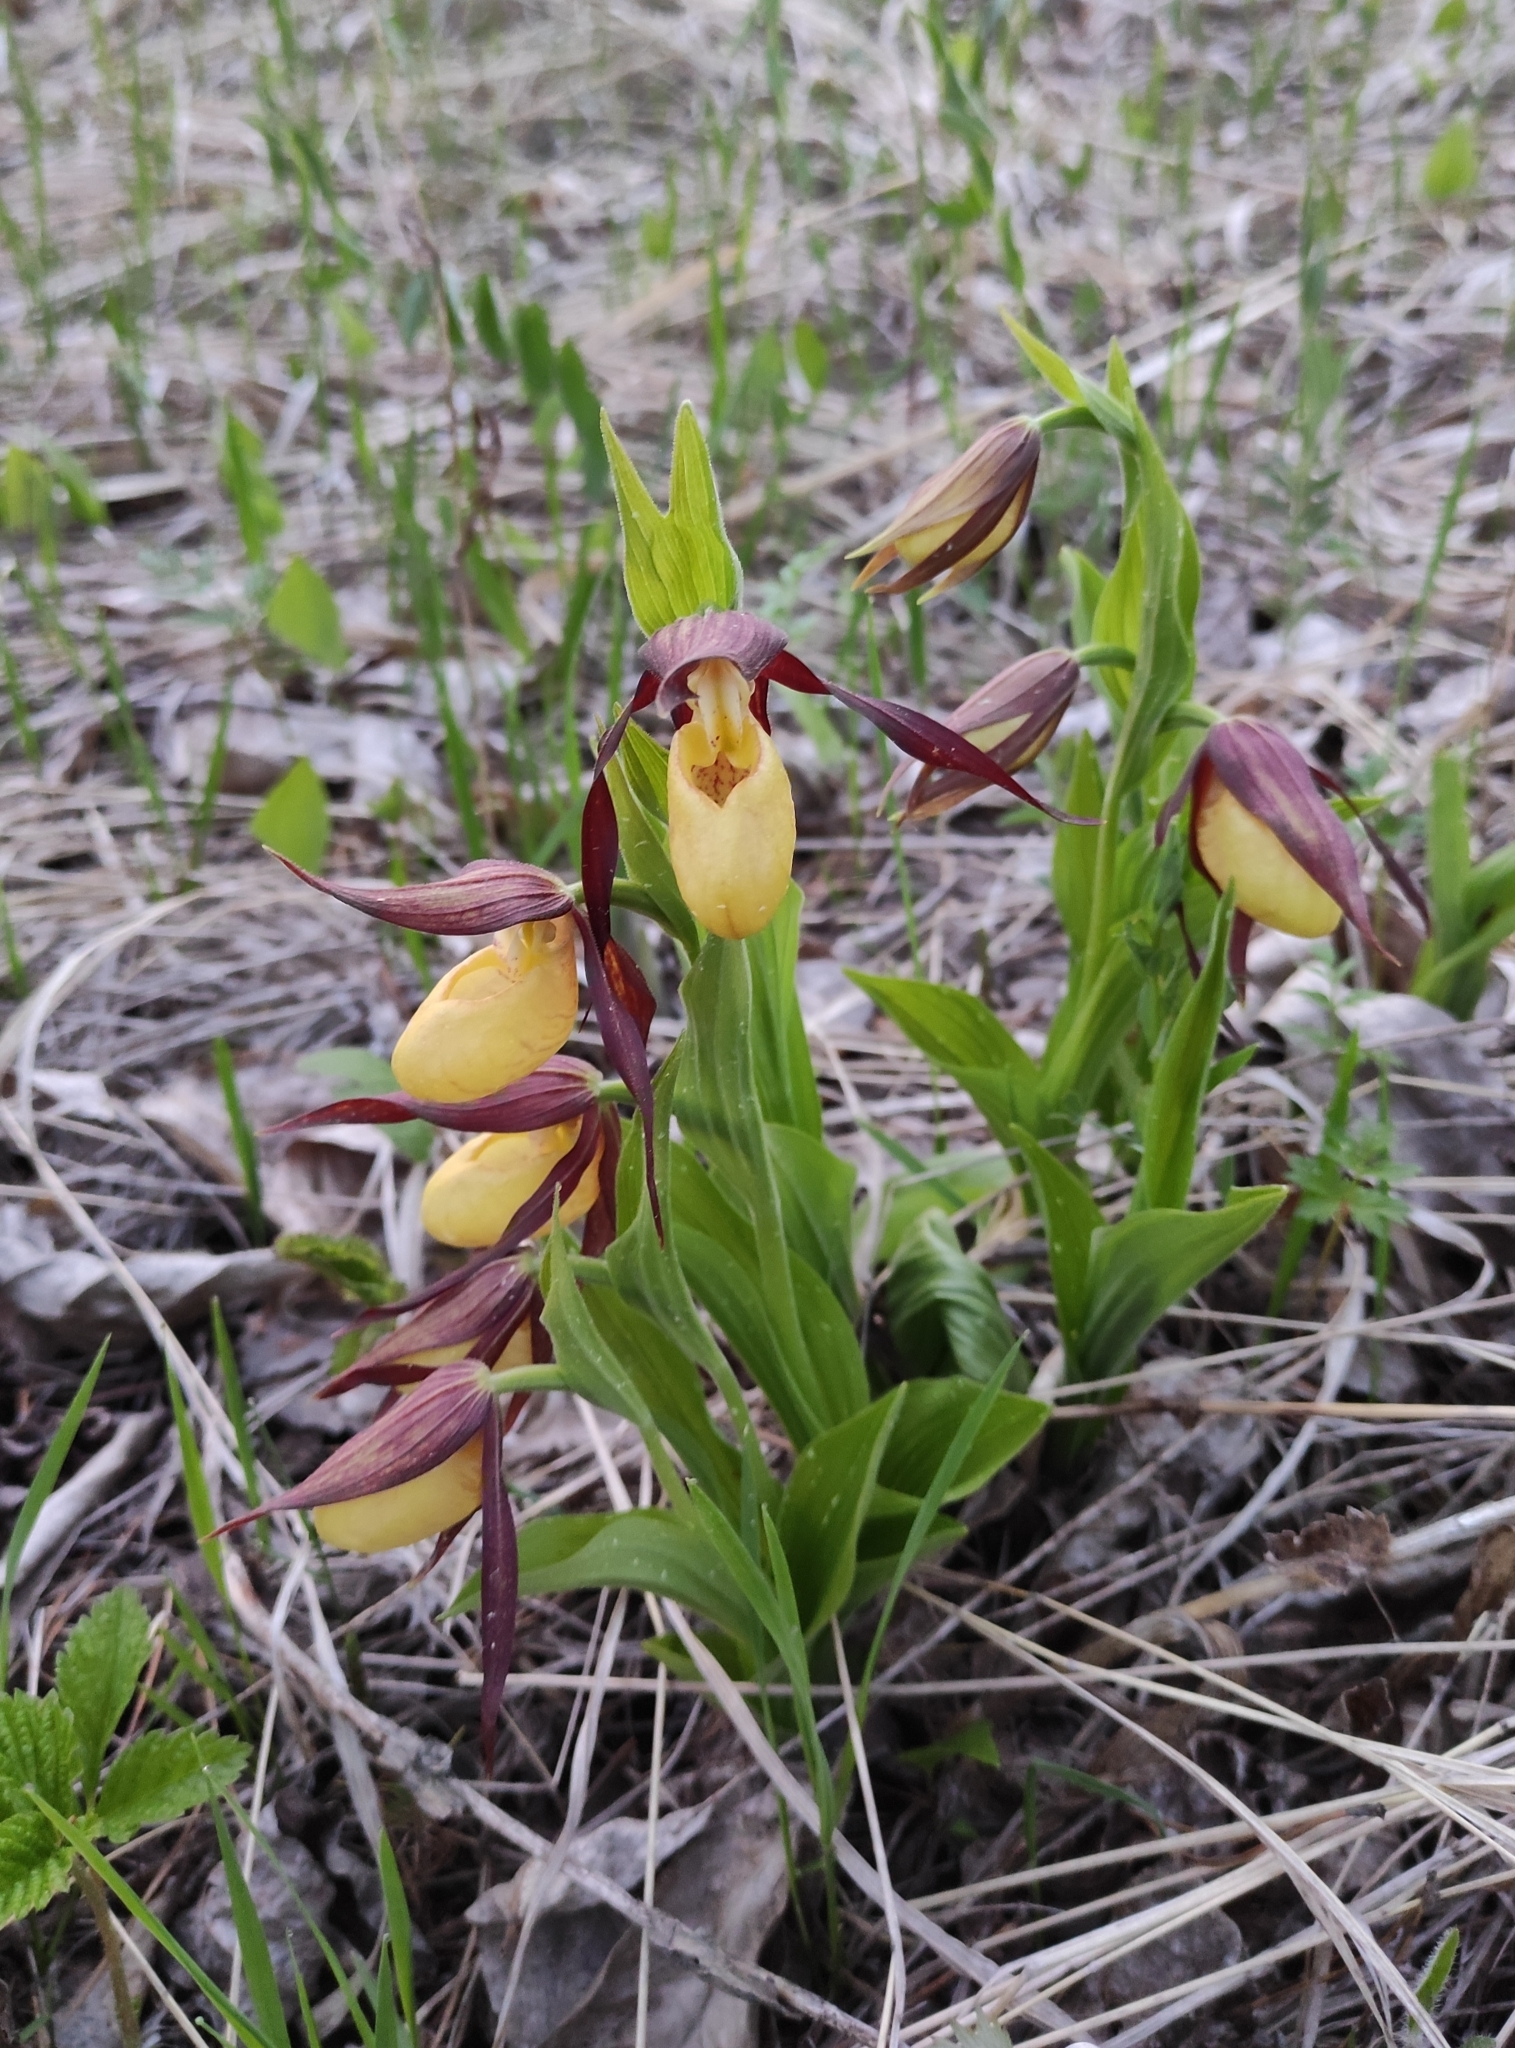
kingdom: Plantae
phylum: Tracheophyta
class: Liliopsida
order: Asparagales
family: Orchidaceae
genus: Cypripedium
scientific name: Cypripedium calceolus
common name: Lady's-slipper
